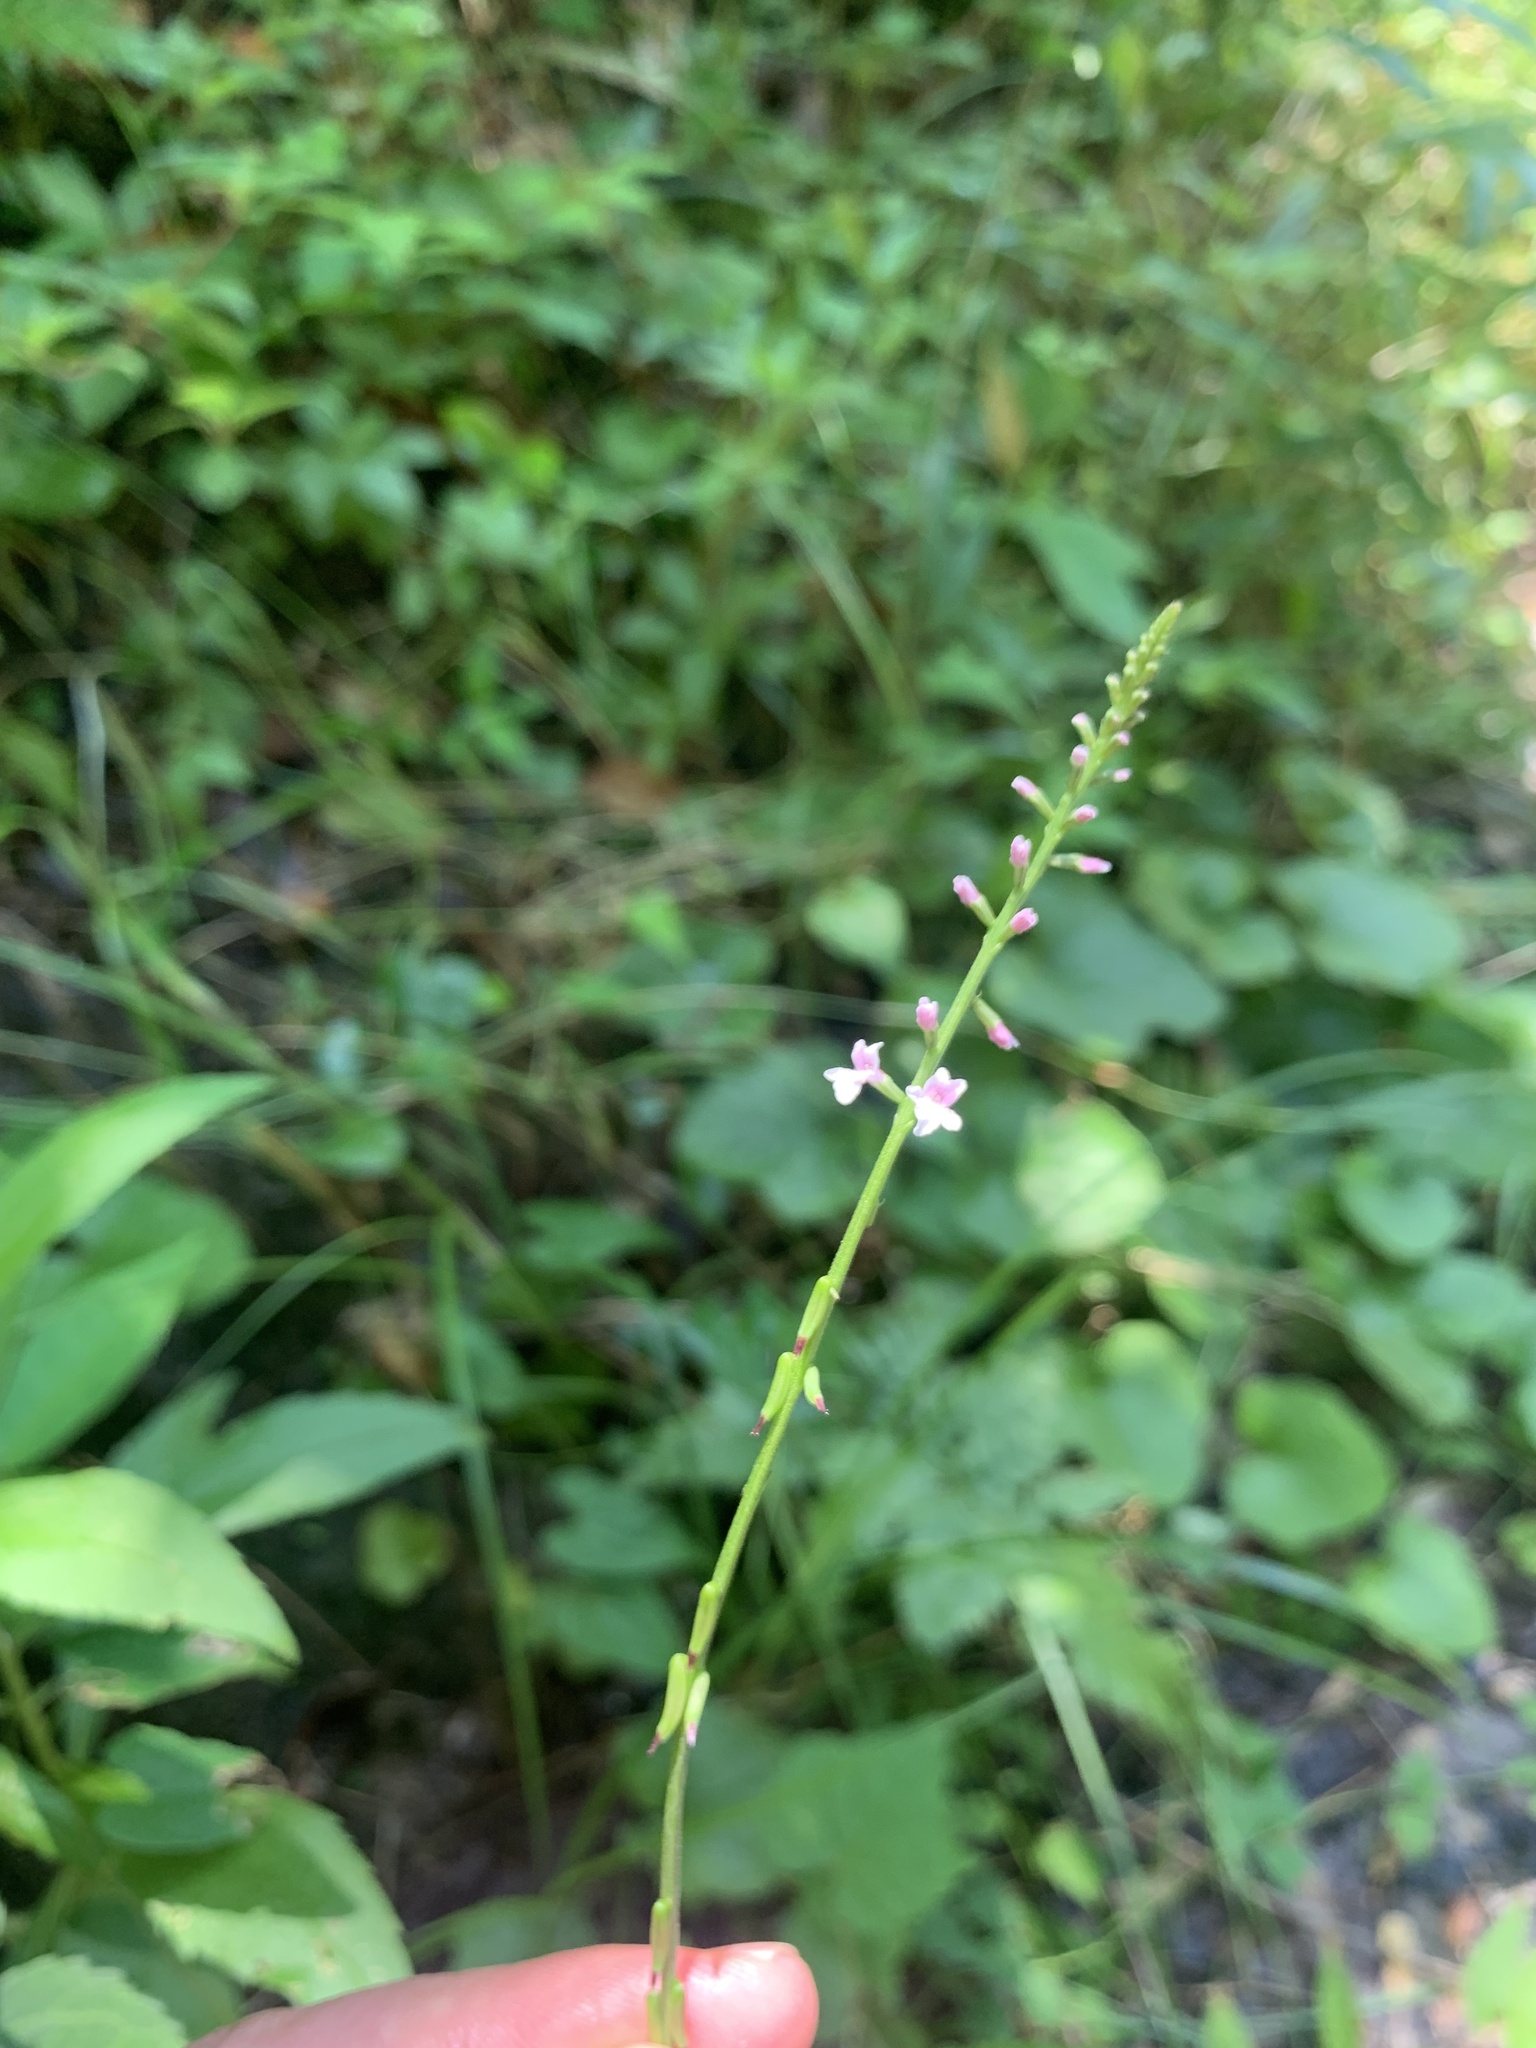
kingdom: Plantae
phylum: Tracheophyta
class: Magnoliopsida
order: Lamiales
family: Phrymaceae
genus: Phryma
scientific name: Phryma oblongifolia
